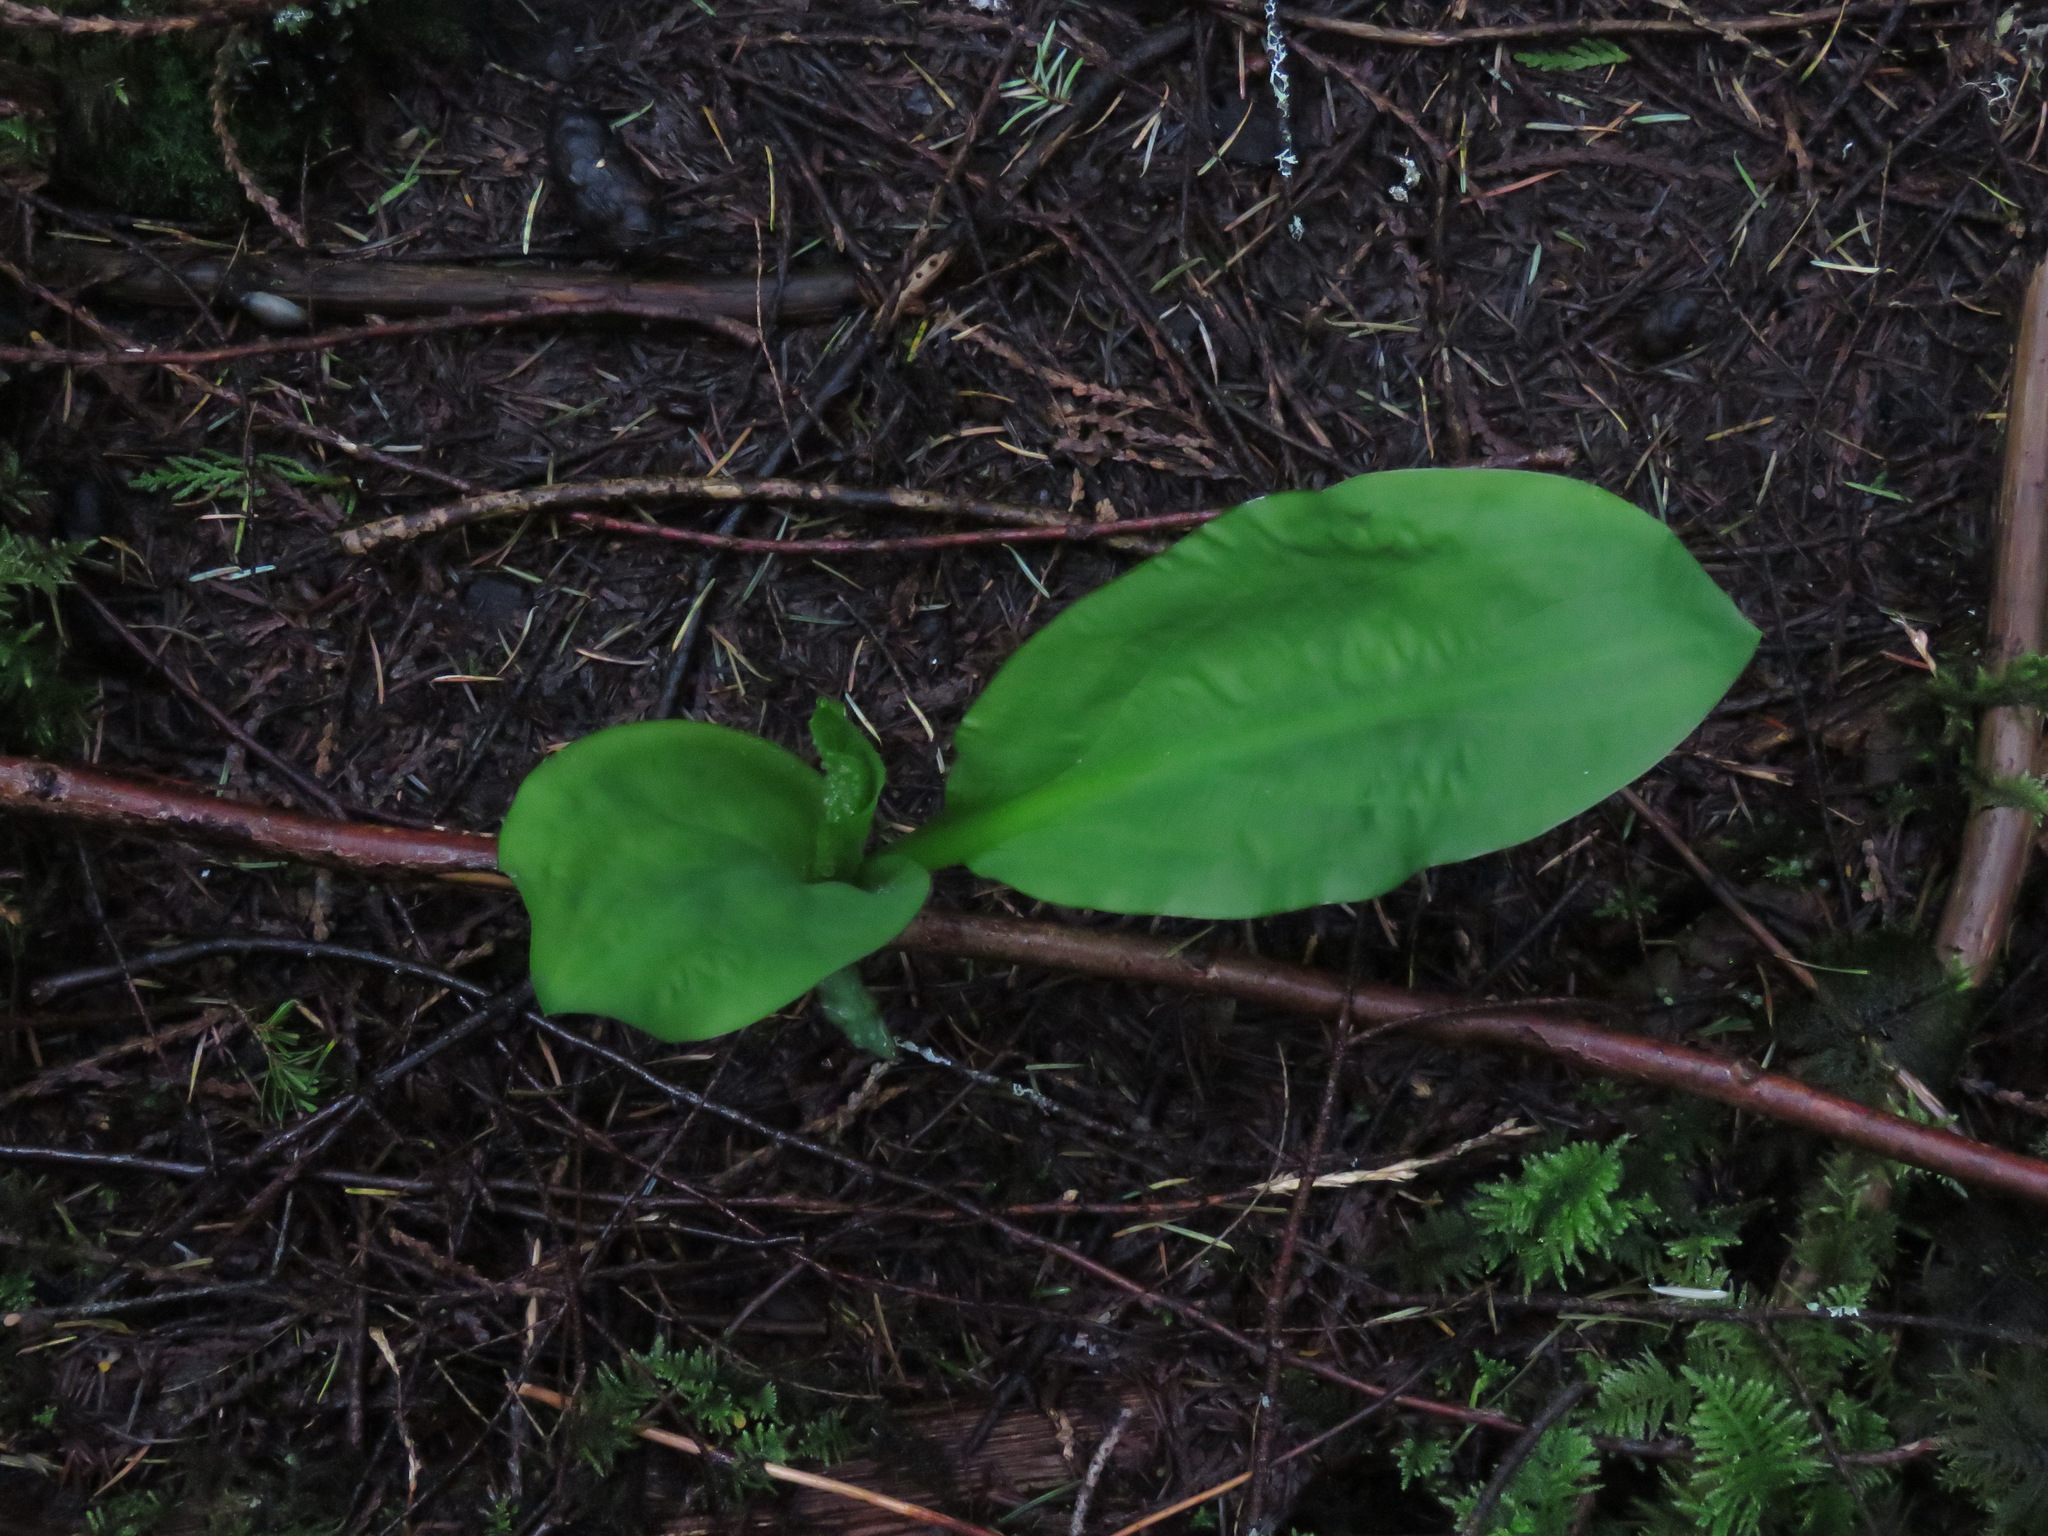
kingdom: Plantae
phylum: Tracheophyta
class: Liliopsida
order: Alismatales
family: Araceae
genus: Lysichiton
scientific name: Lysichiton americanus
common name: American skunk cabbage
